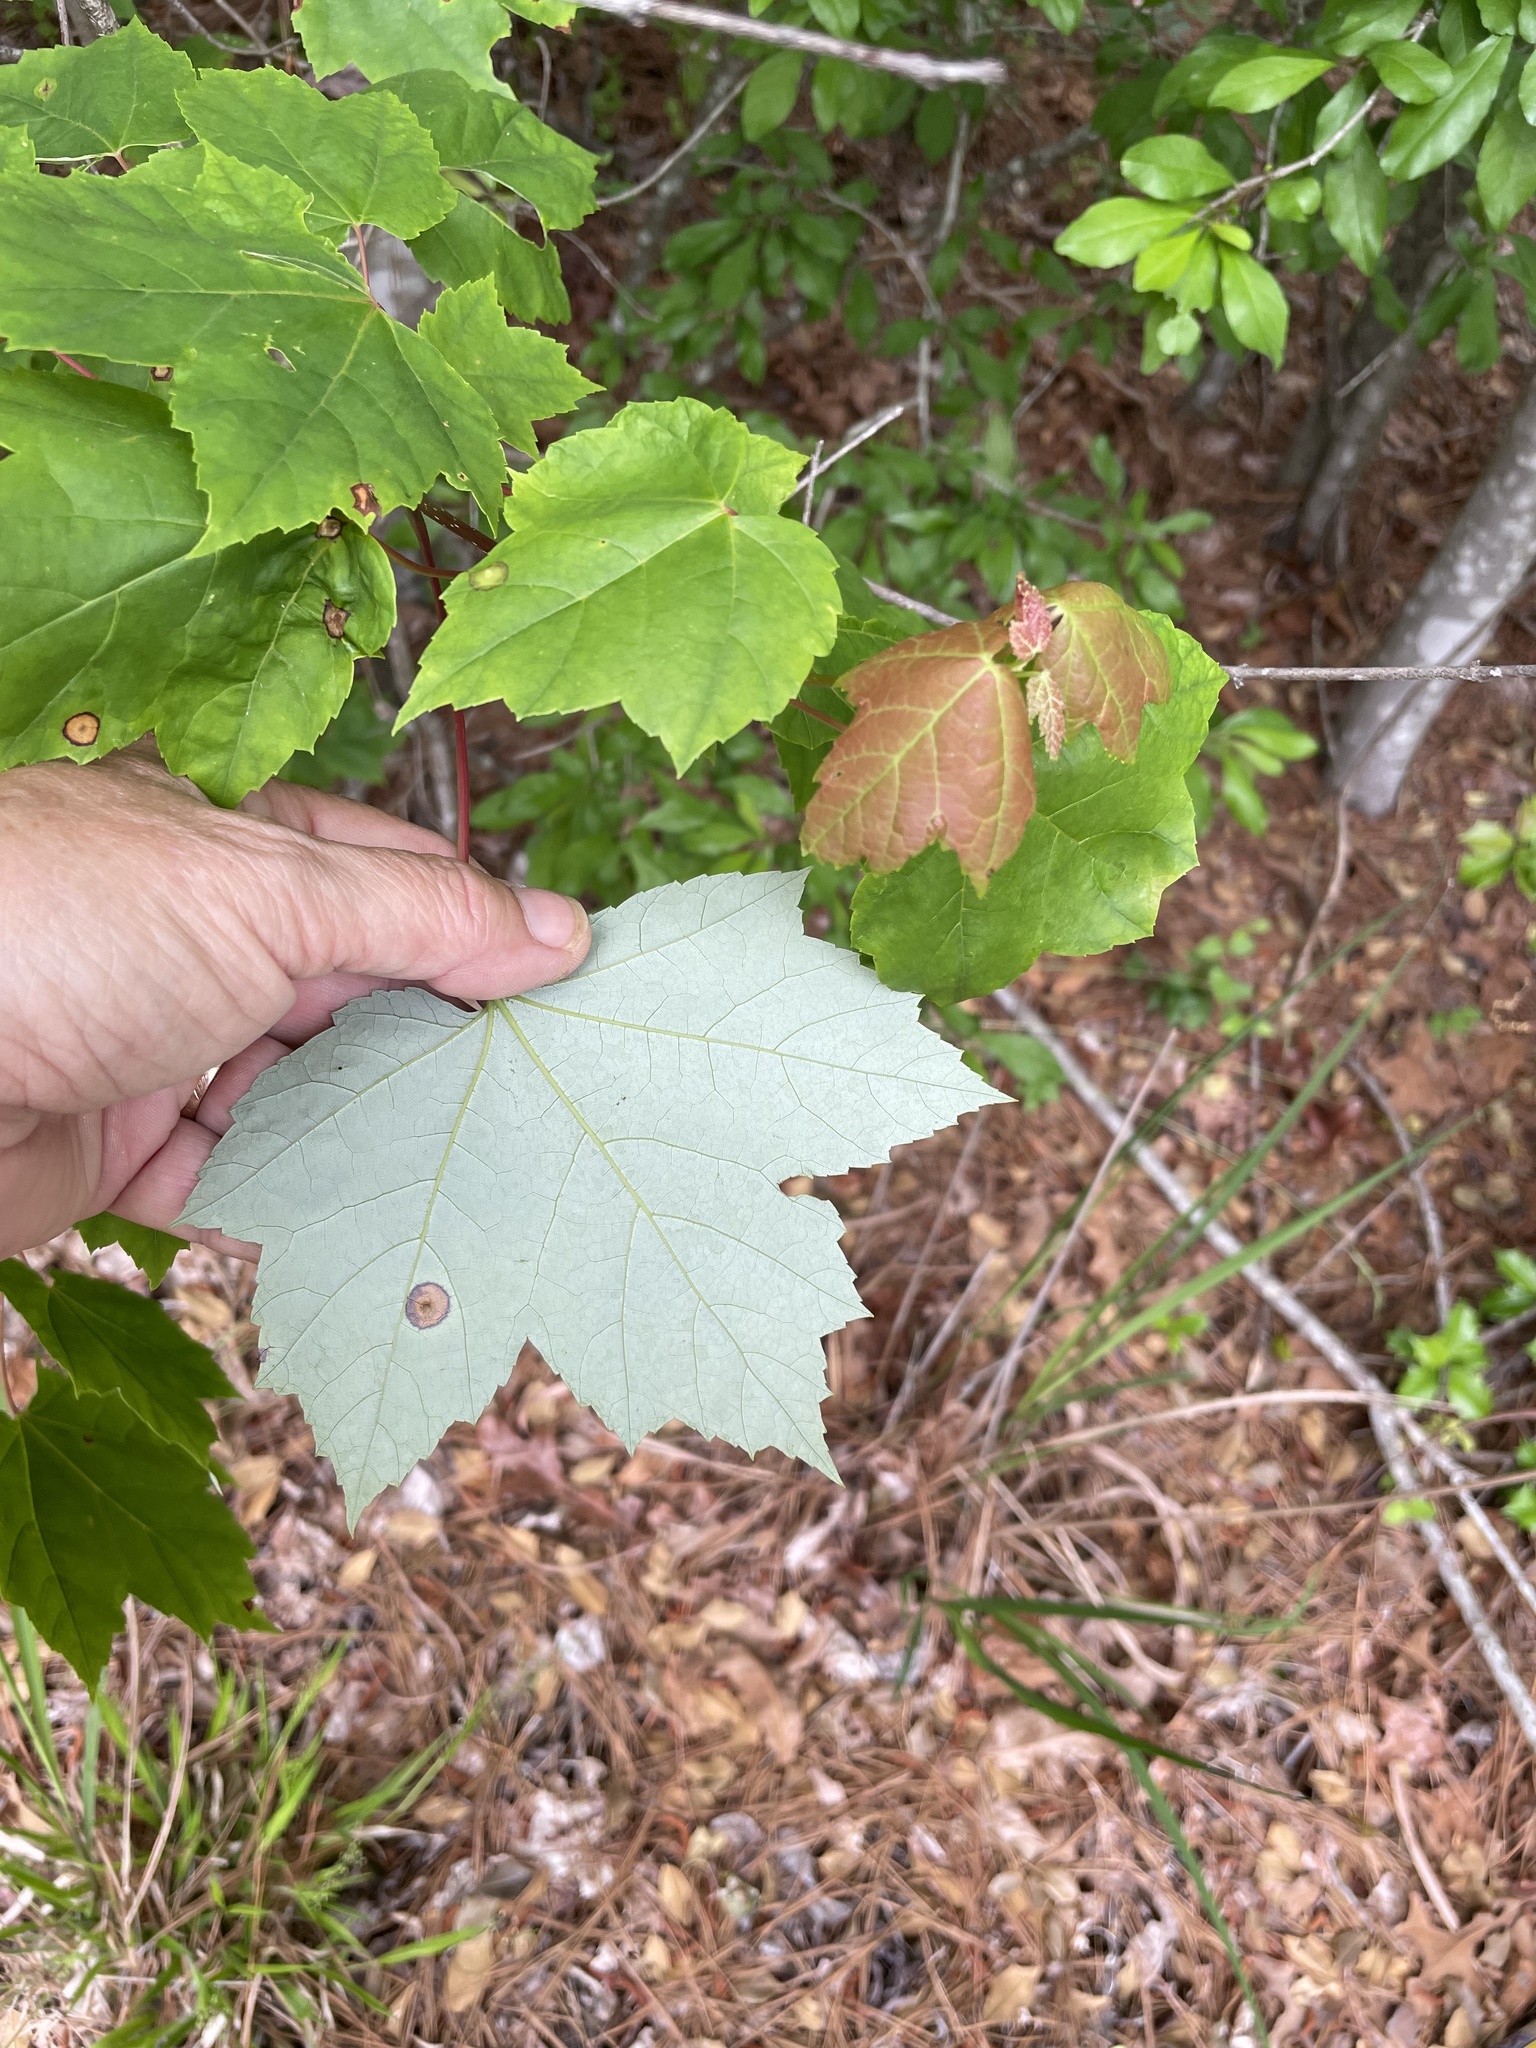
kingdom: Plantae
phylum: Tracheophyta
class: Magnoliopsida
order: Sapindales
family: Sapindaceae
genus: Acer
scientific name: Acer rubrum
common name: Red maple
